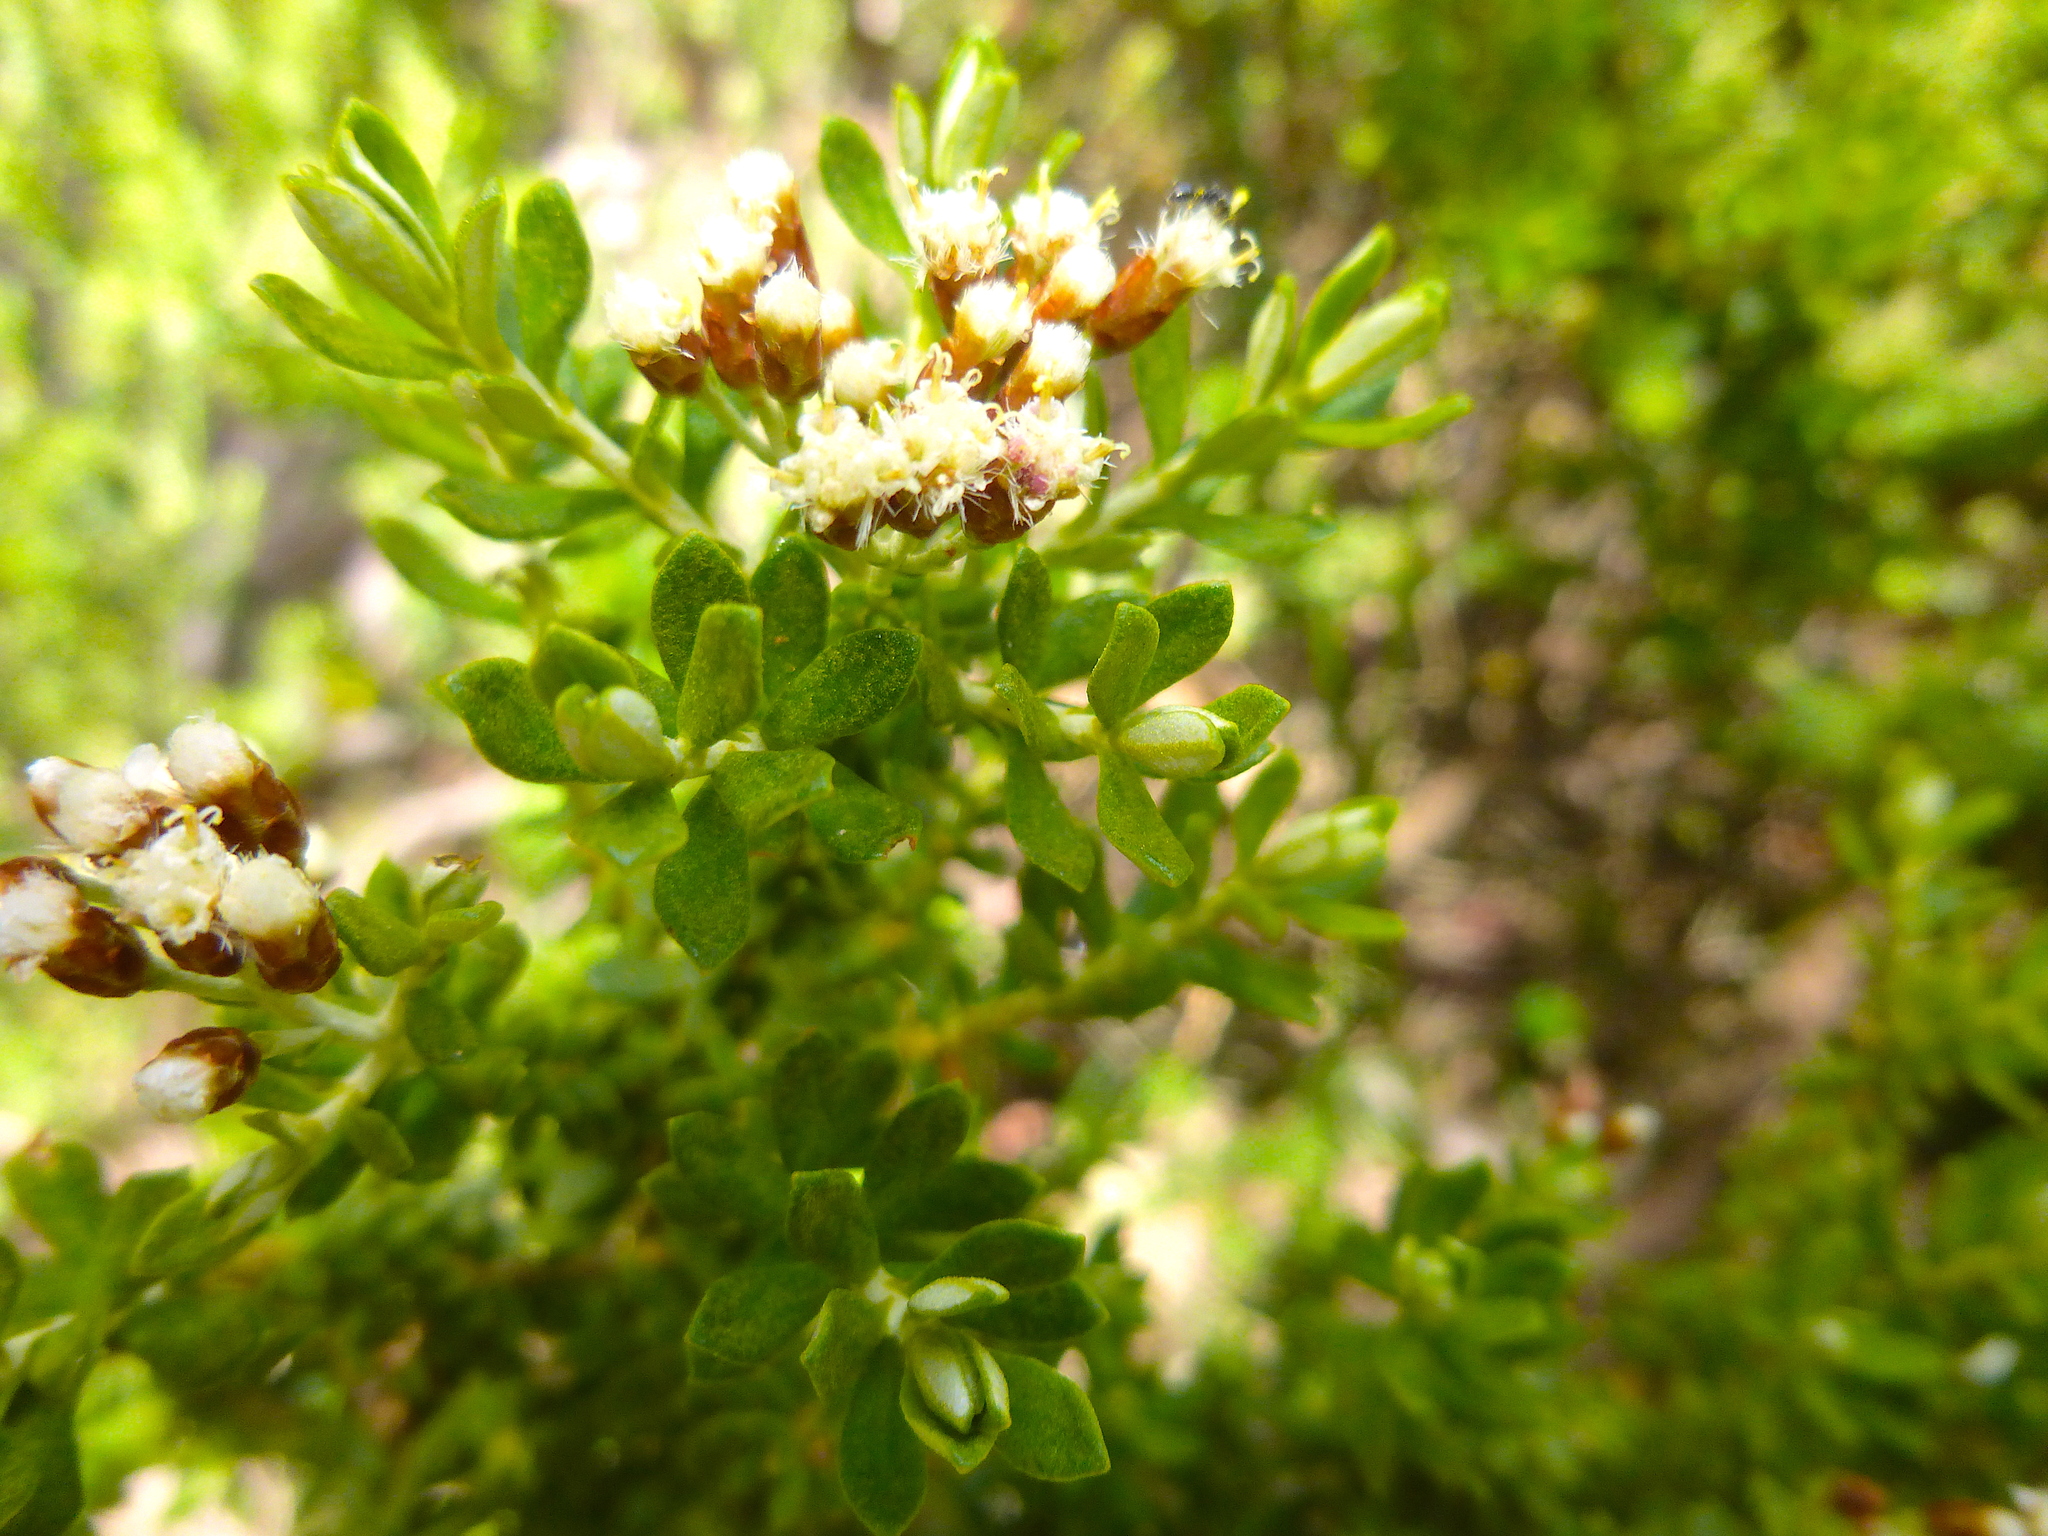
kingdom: Plantae
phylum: Tracheophyta
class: Magnoliopsida
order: Asterales
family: Asteraceae
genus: Ozothamnus
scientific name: Ozothamnus ledifolius
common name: Kerosene-weed
